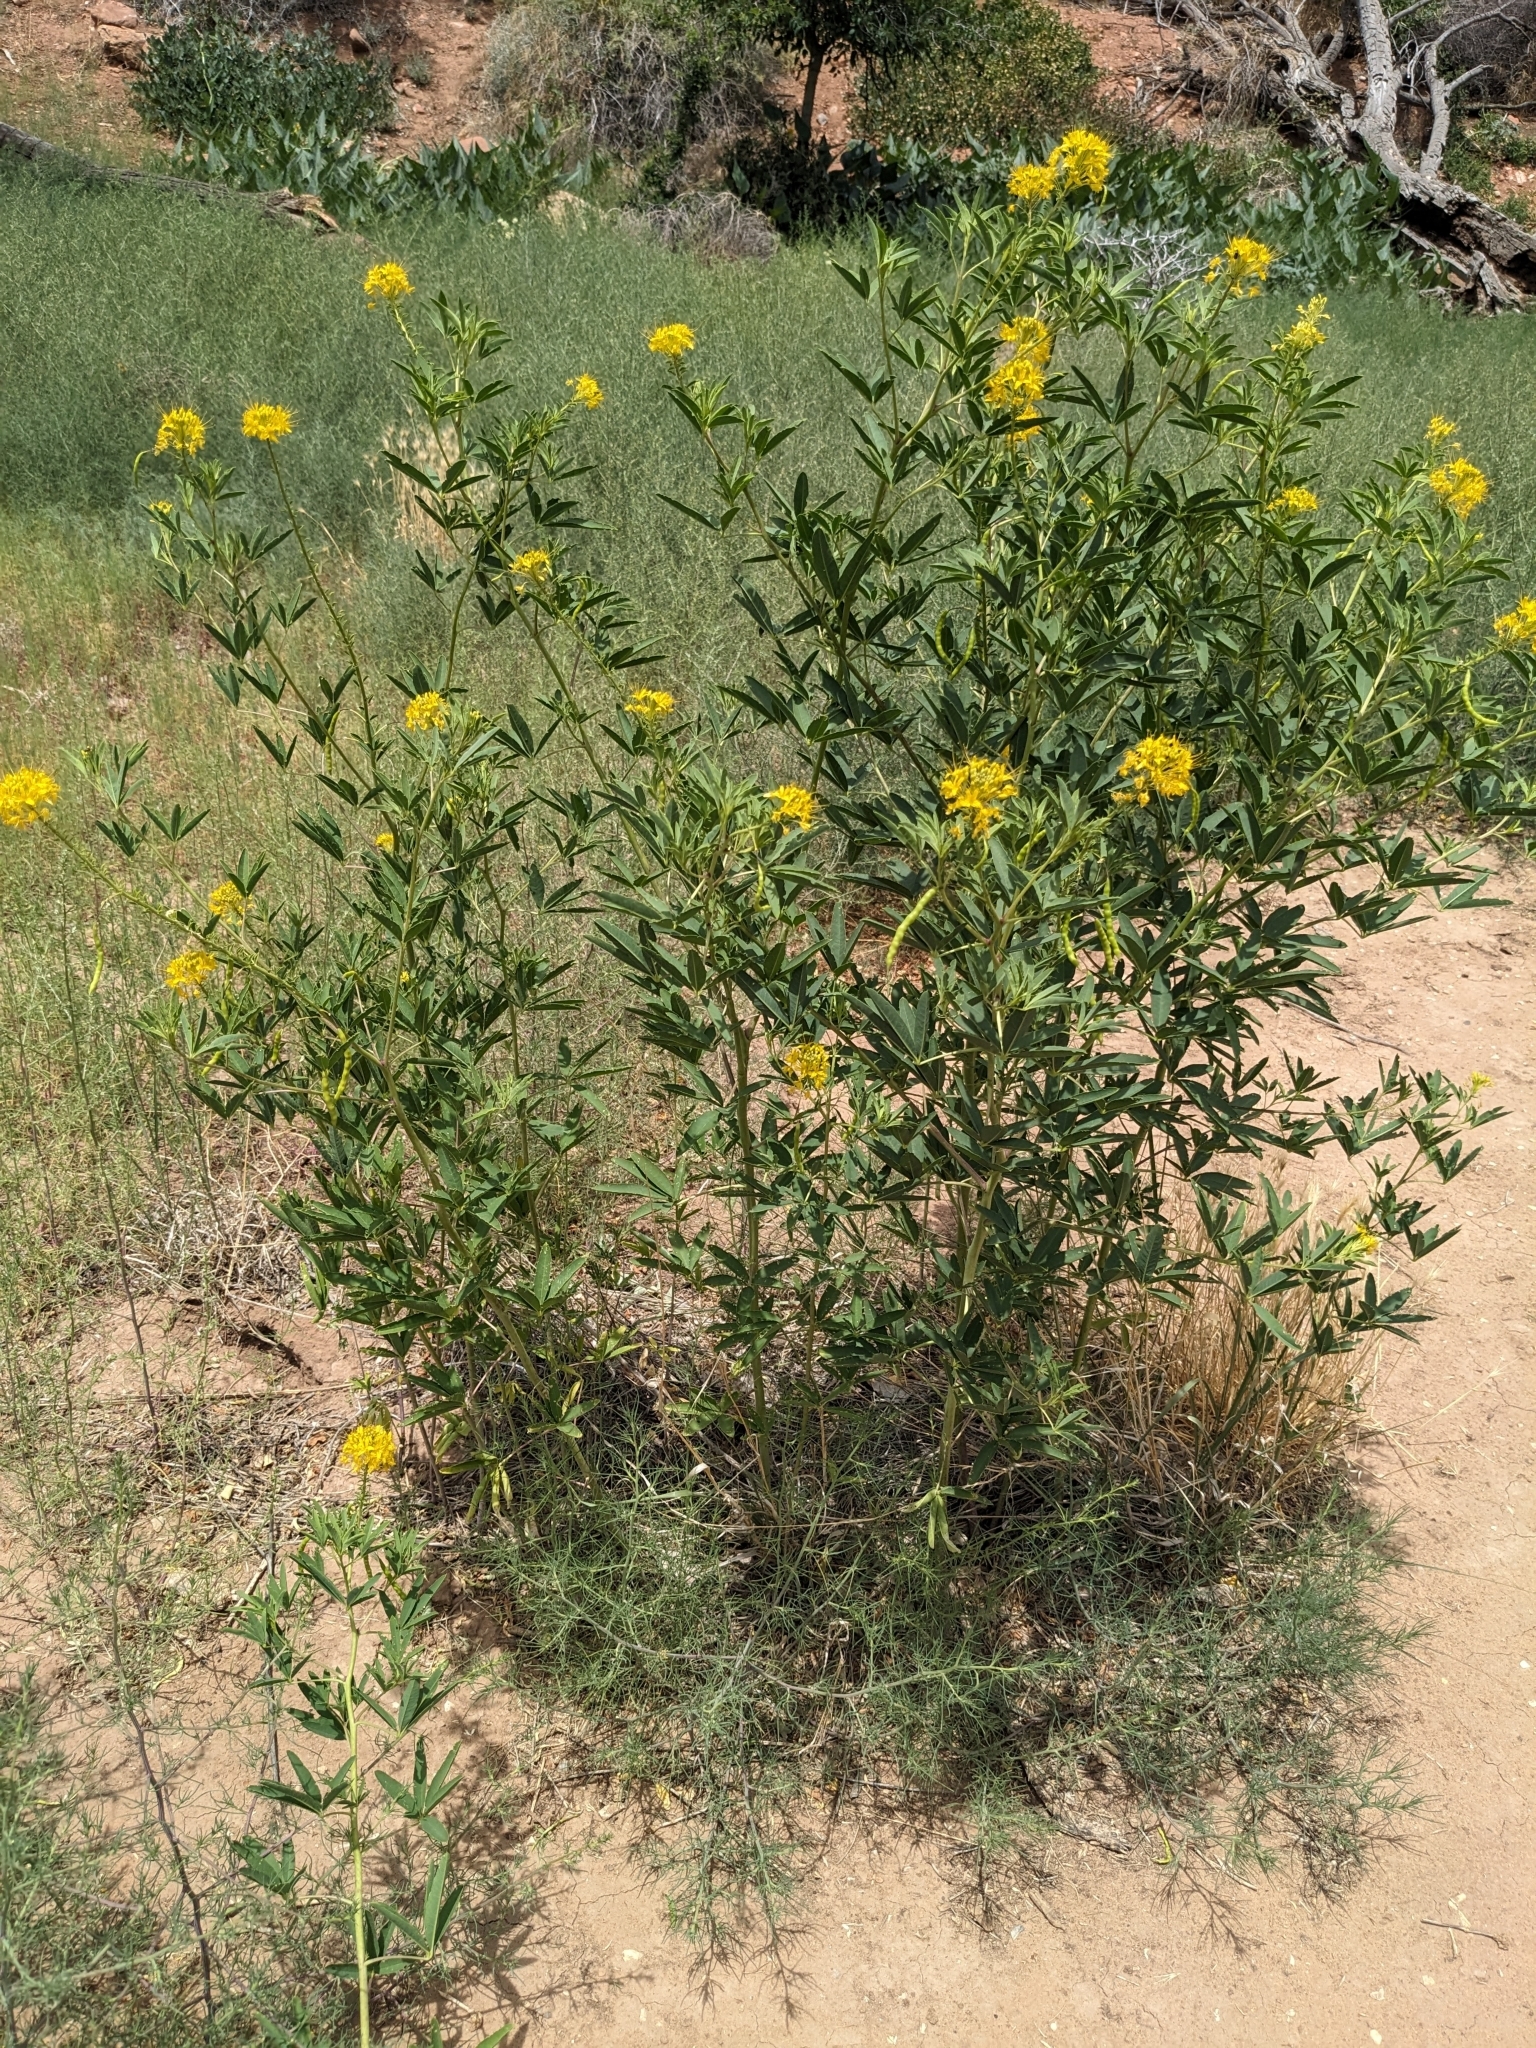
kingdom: Plantae
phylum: Tracheophyta
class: Magnoliopsida
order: Brassicales
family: Cleomaceae
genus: Cleomella
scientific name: Cleomella lutea
